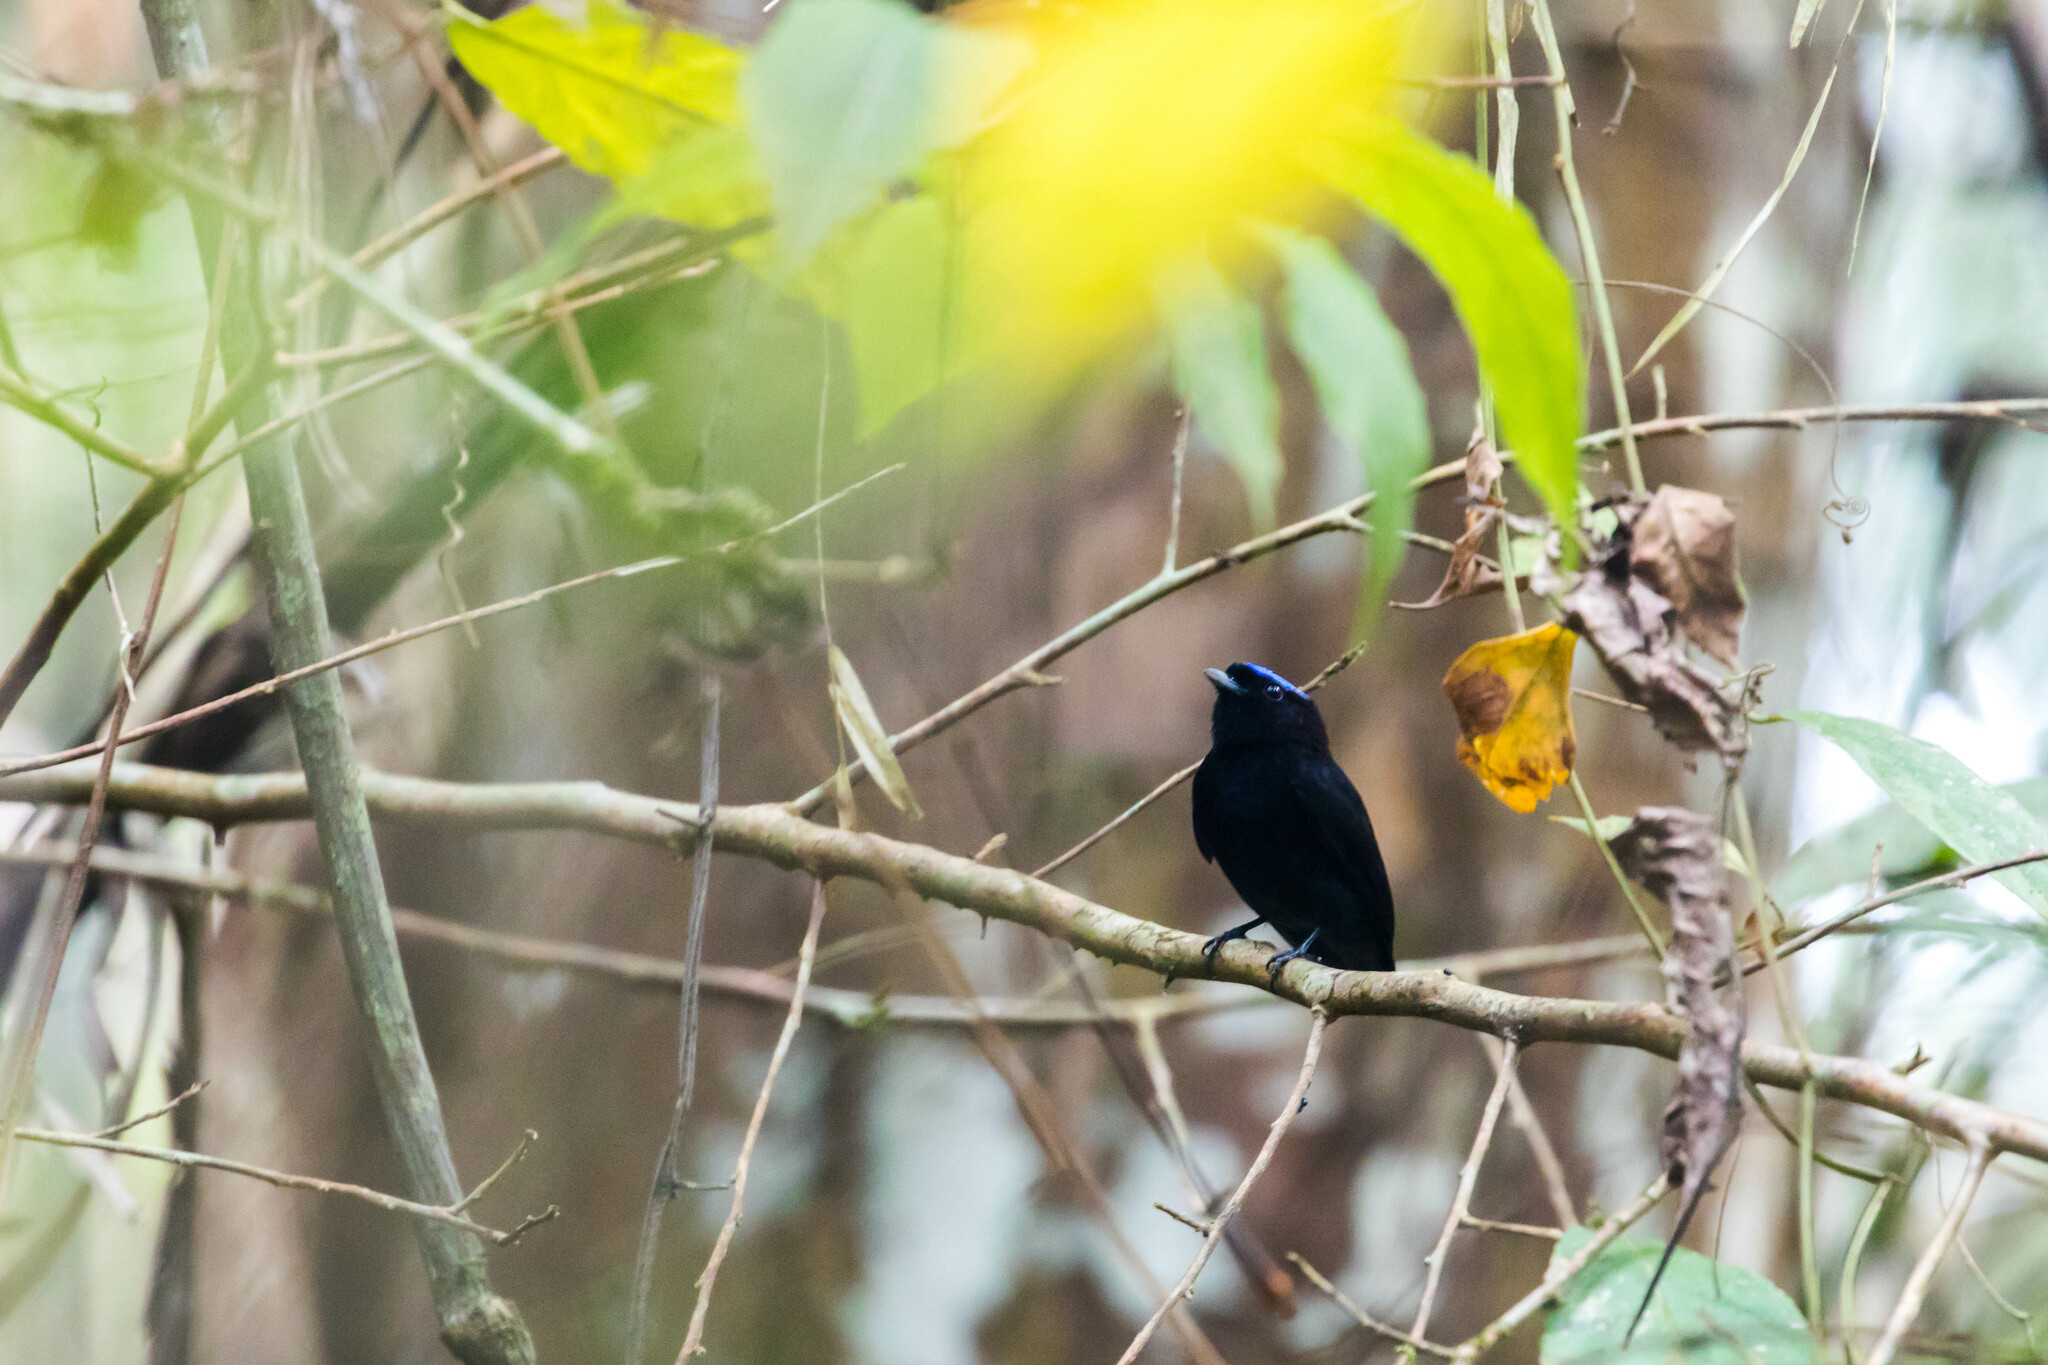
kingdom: Animalia
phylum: Chordata
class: Aves
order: Passeriformes
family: Pipridae
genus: Lepidothrix
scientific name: Lepidothrix coronata
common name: Blue-crowned manakin
